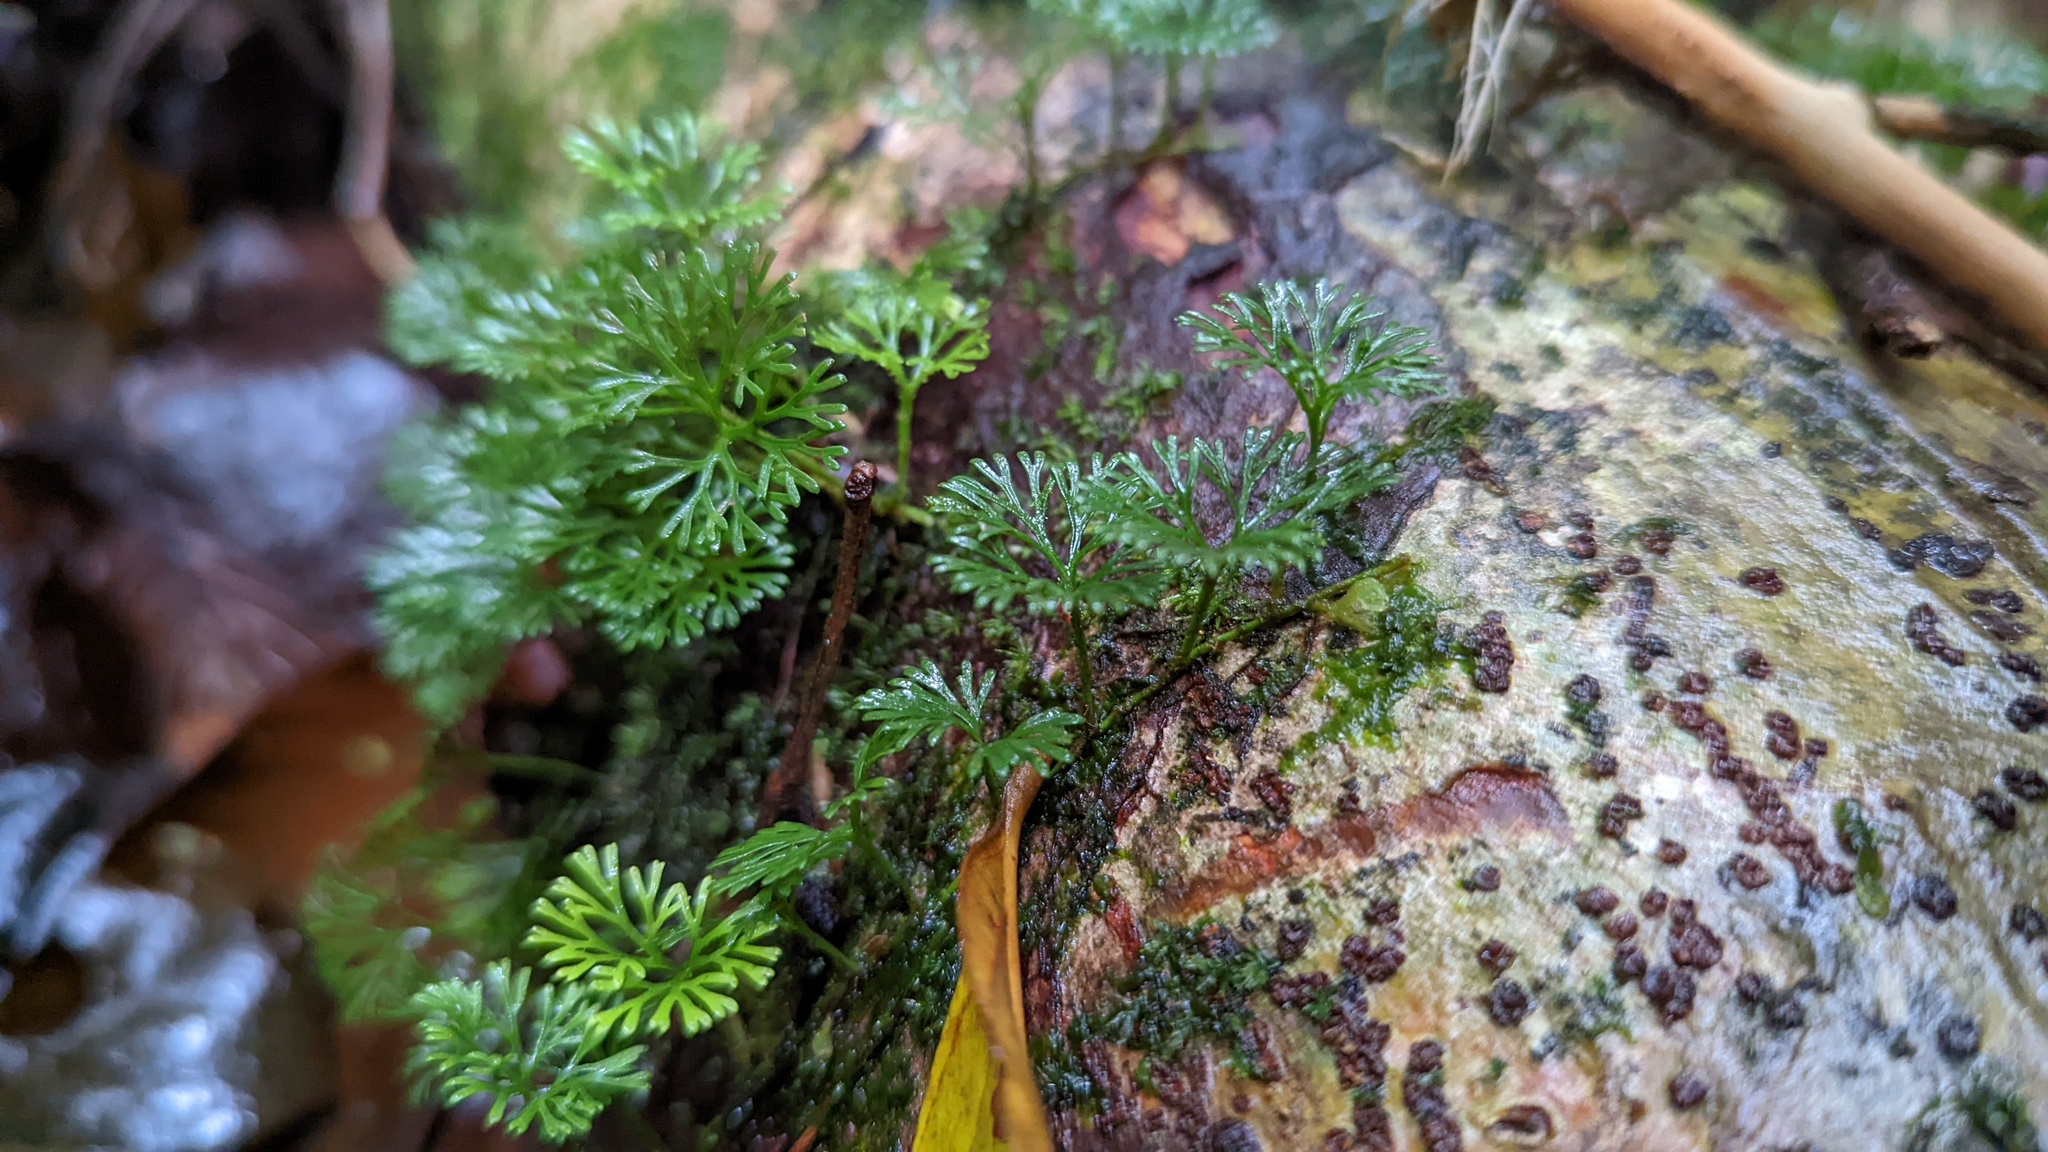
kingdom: Plantae
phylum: Tracheophyta
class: Polypodiopsida
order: Polypodiales
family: Dryopteridaceae
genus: Elaphoglossum
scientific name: Elaphoglossum peltatum
